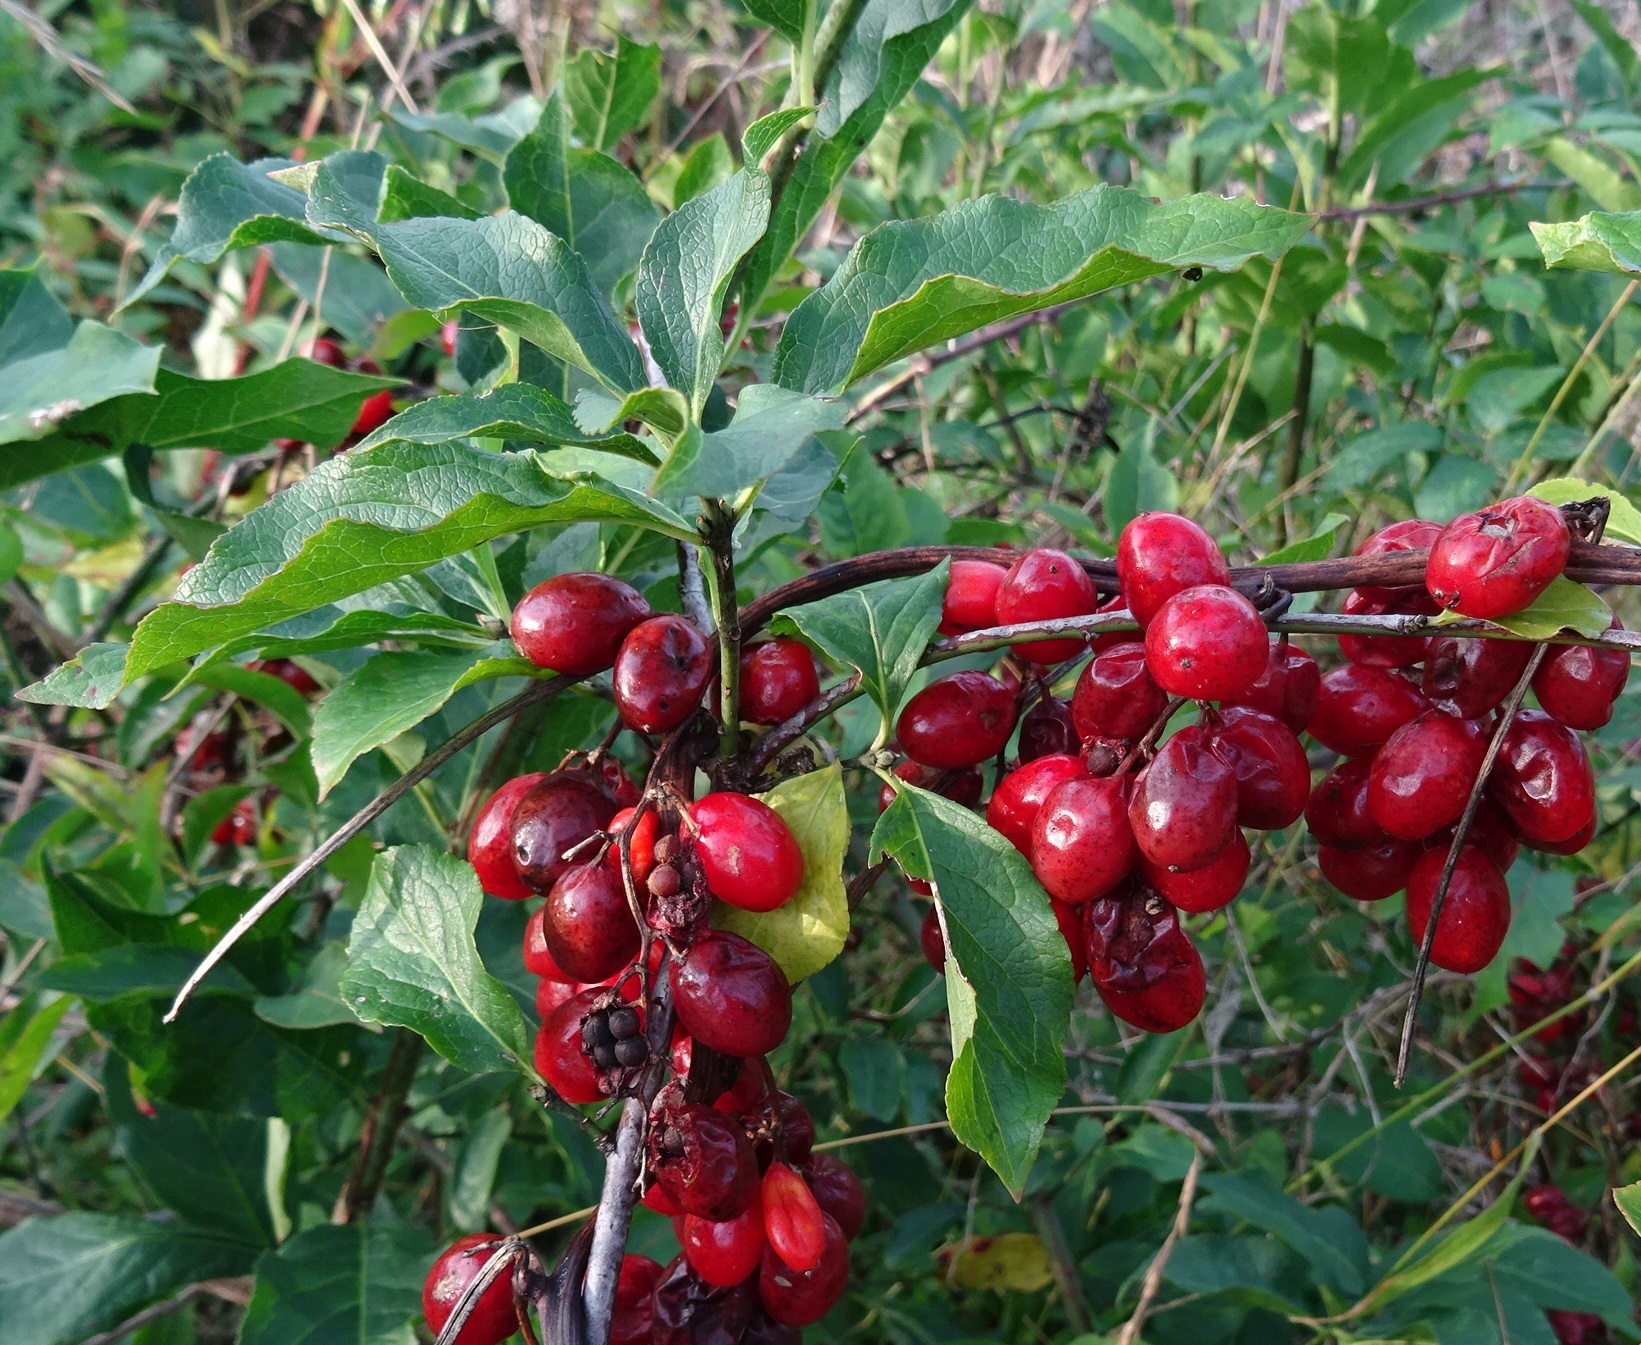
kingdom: Plantae
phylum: Tracheophyta
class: Liliopsida
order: Dioscoreales
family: Dioscoreaceae
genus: Dioscorea
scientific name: Dioscorea communis
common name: Black-bindweed
